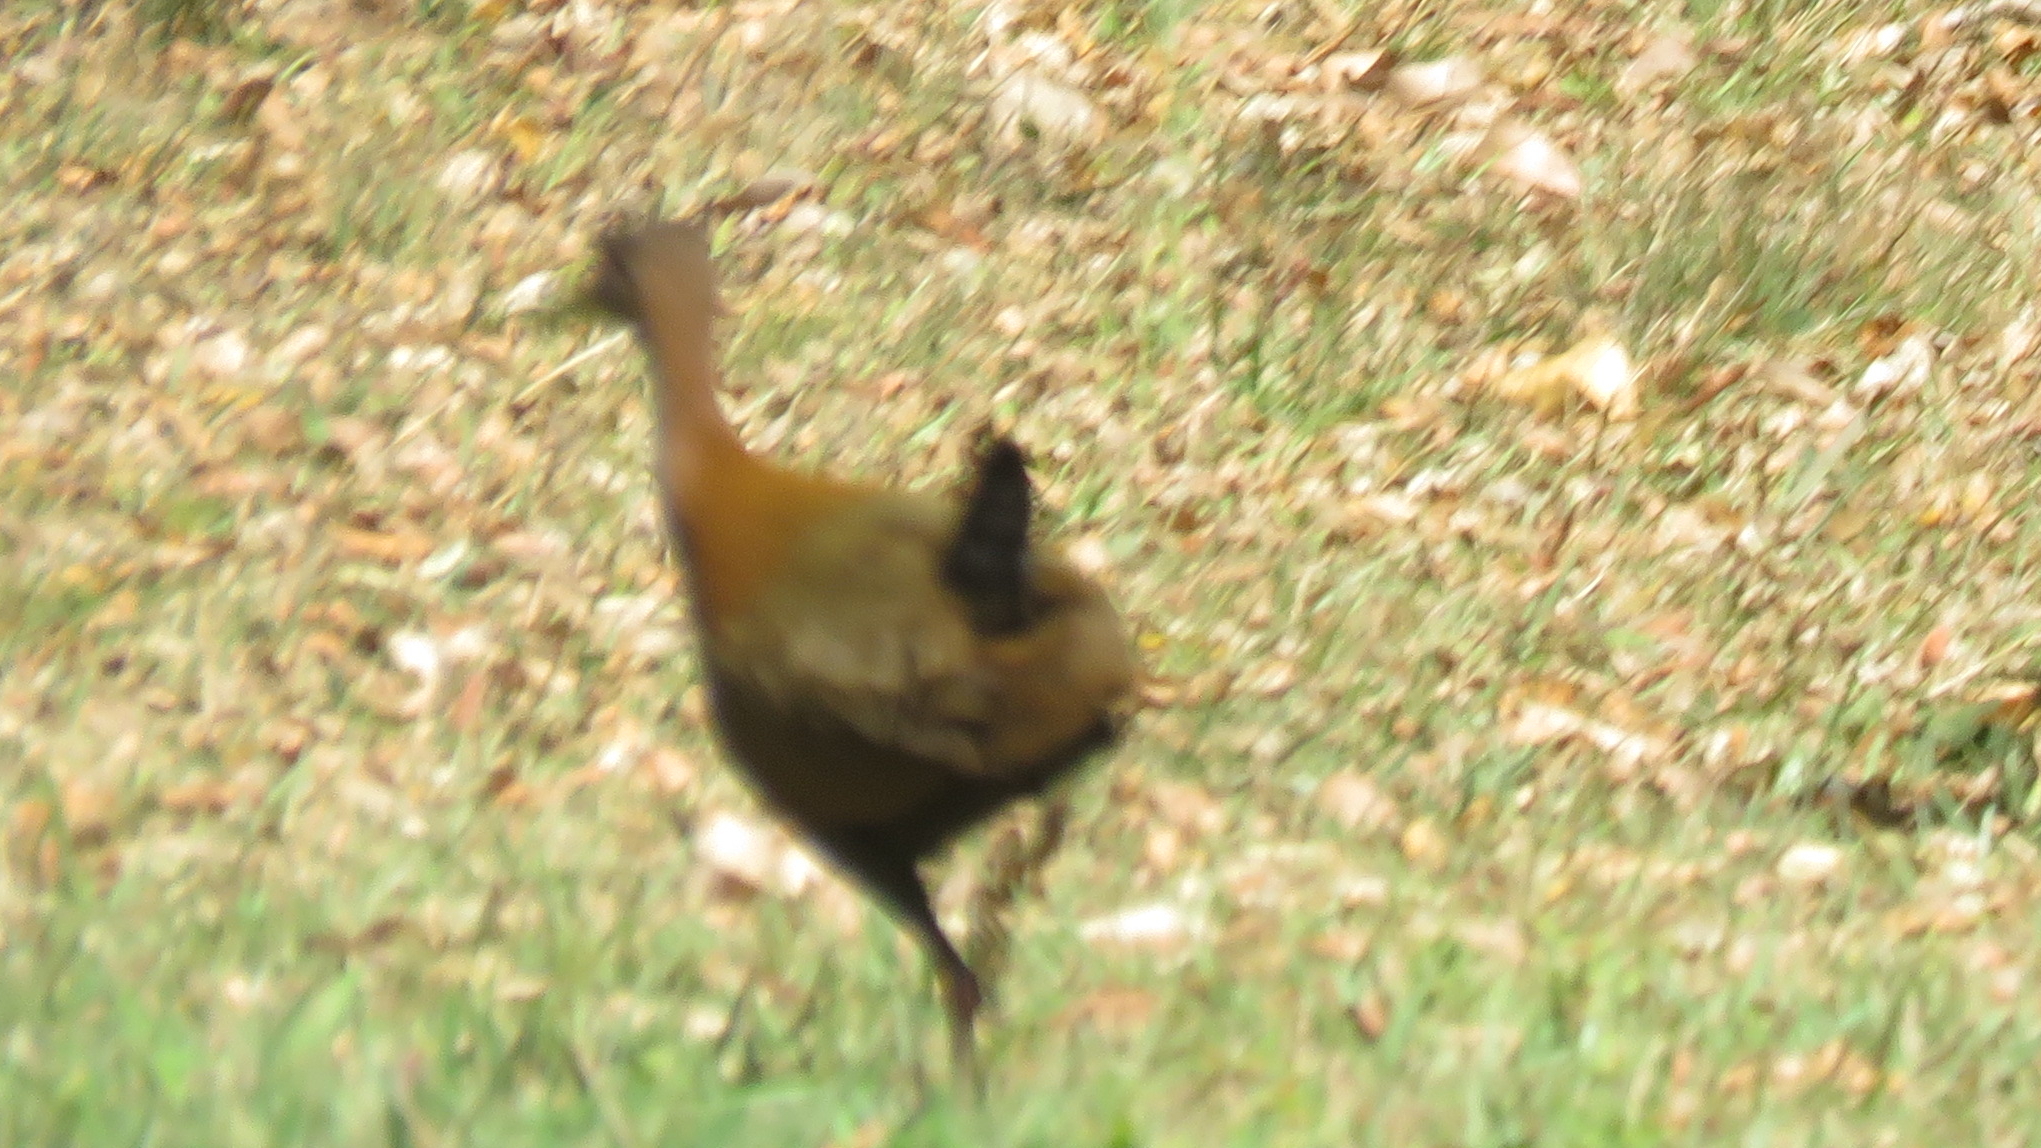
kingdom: Animalia
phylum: Chordata
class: Aves
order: Gruiformes
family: Rallidae
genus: Aramides
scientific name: Aramides saracura
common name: Slaty-breasted wood rail
